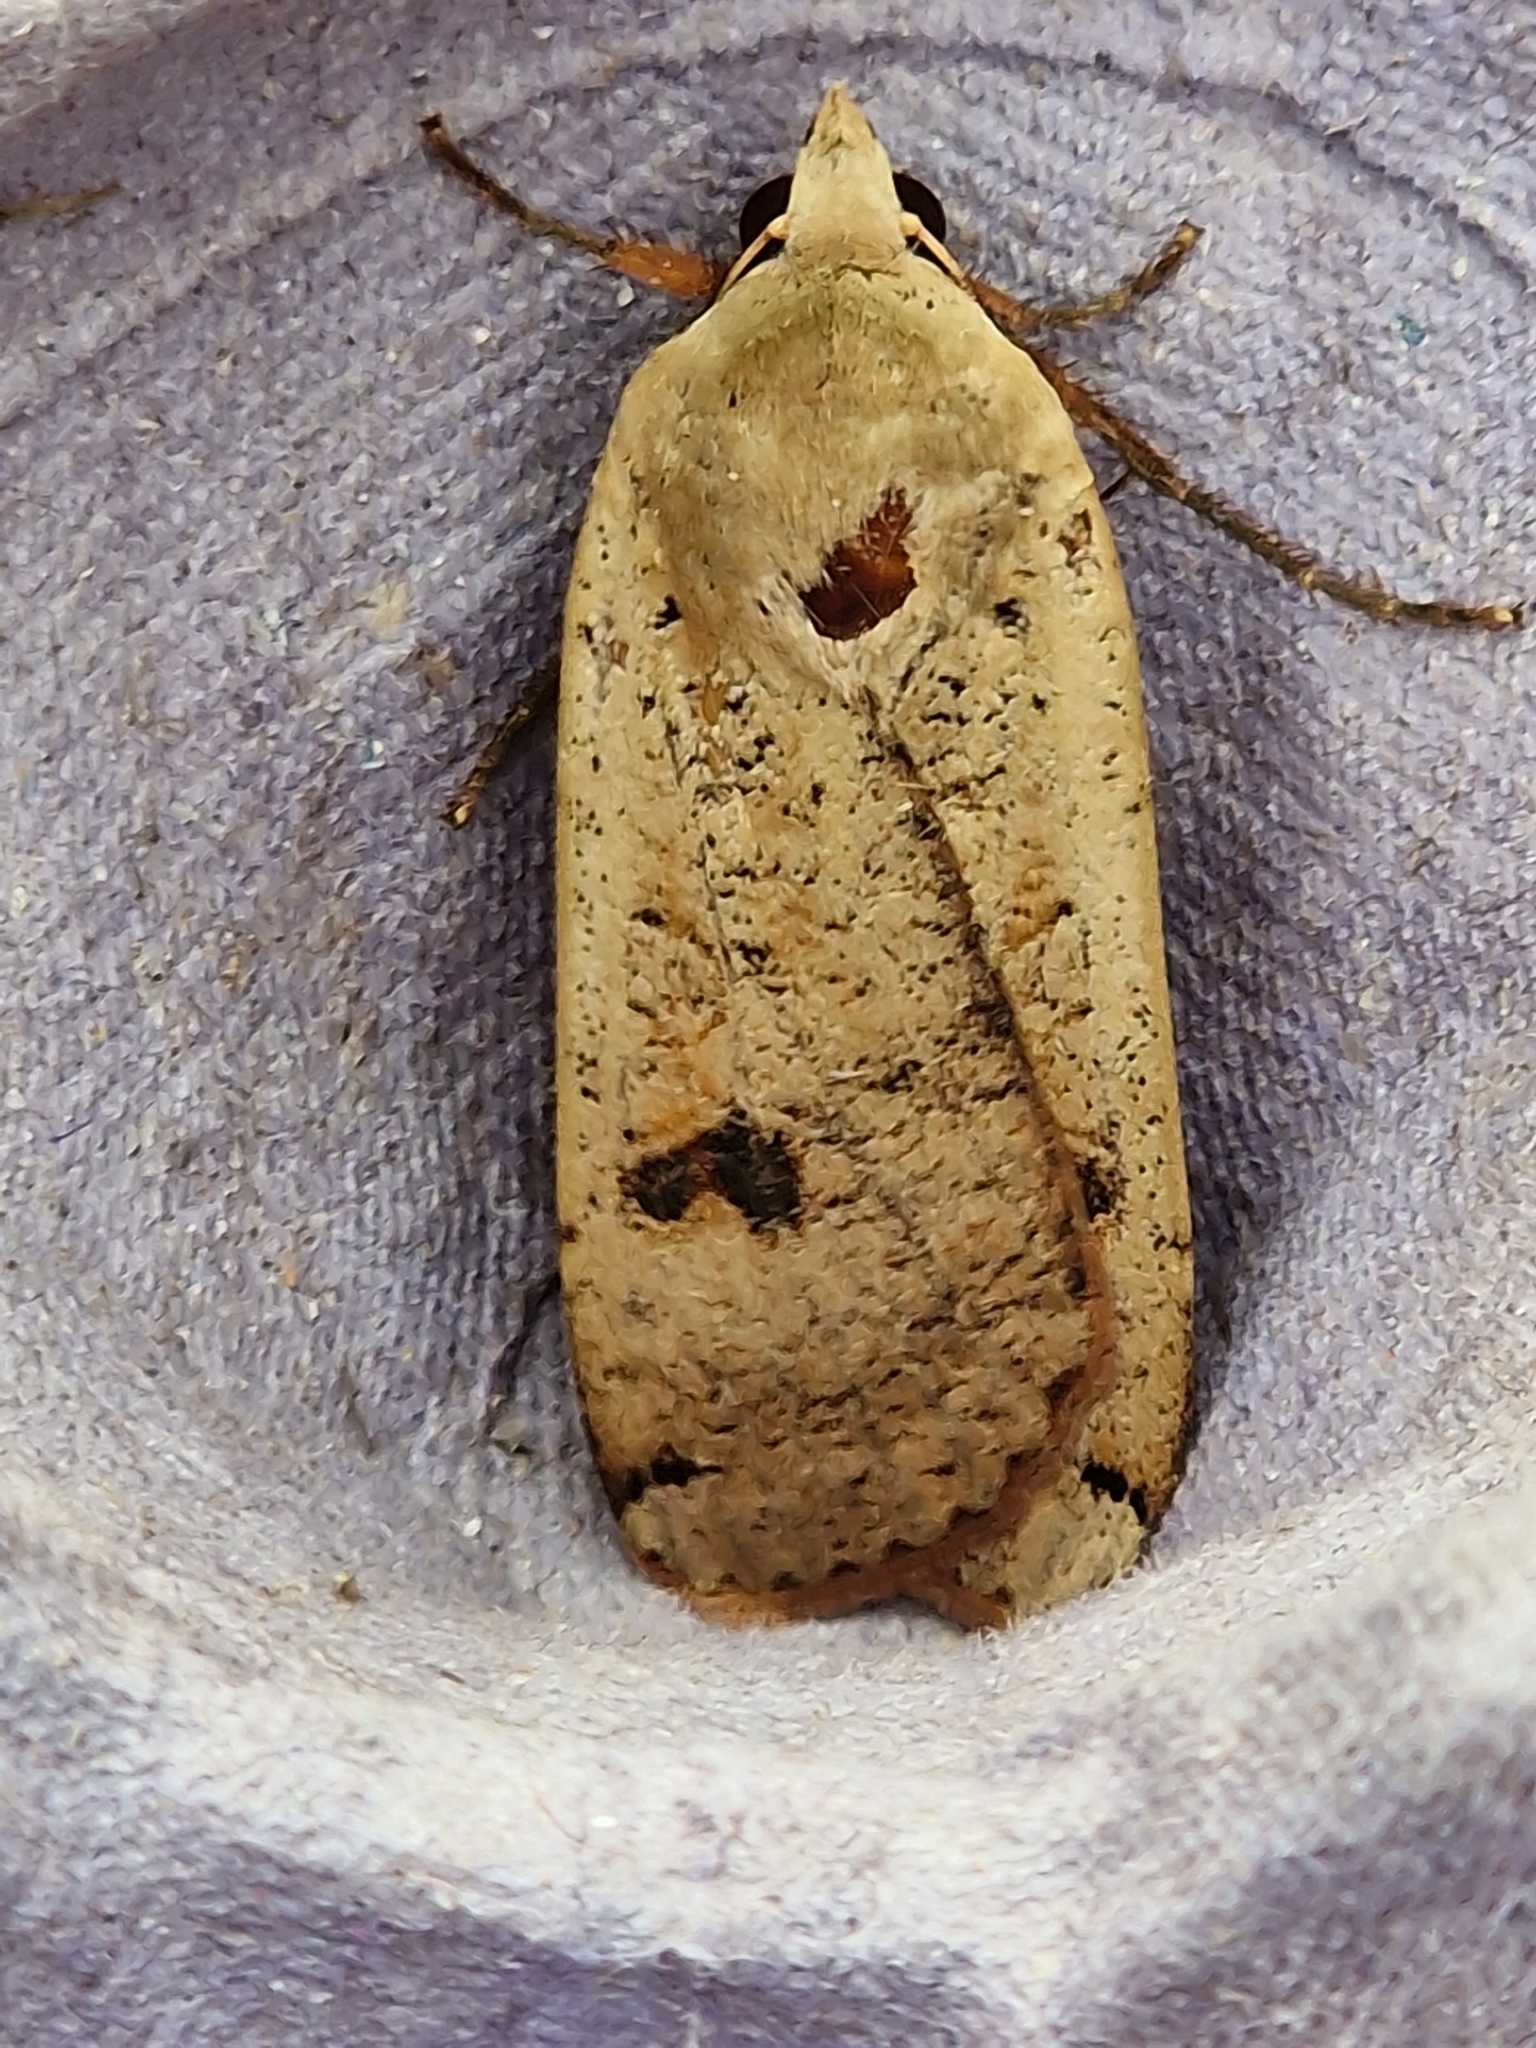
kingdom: Animalia
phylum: Arthropoda
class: Insecta
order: Lepidoptera
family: Noctuidae
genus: Noctua
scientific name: Noctua pronuba
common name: Large yellow underwing
